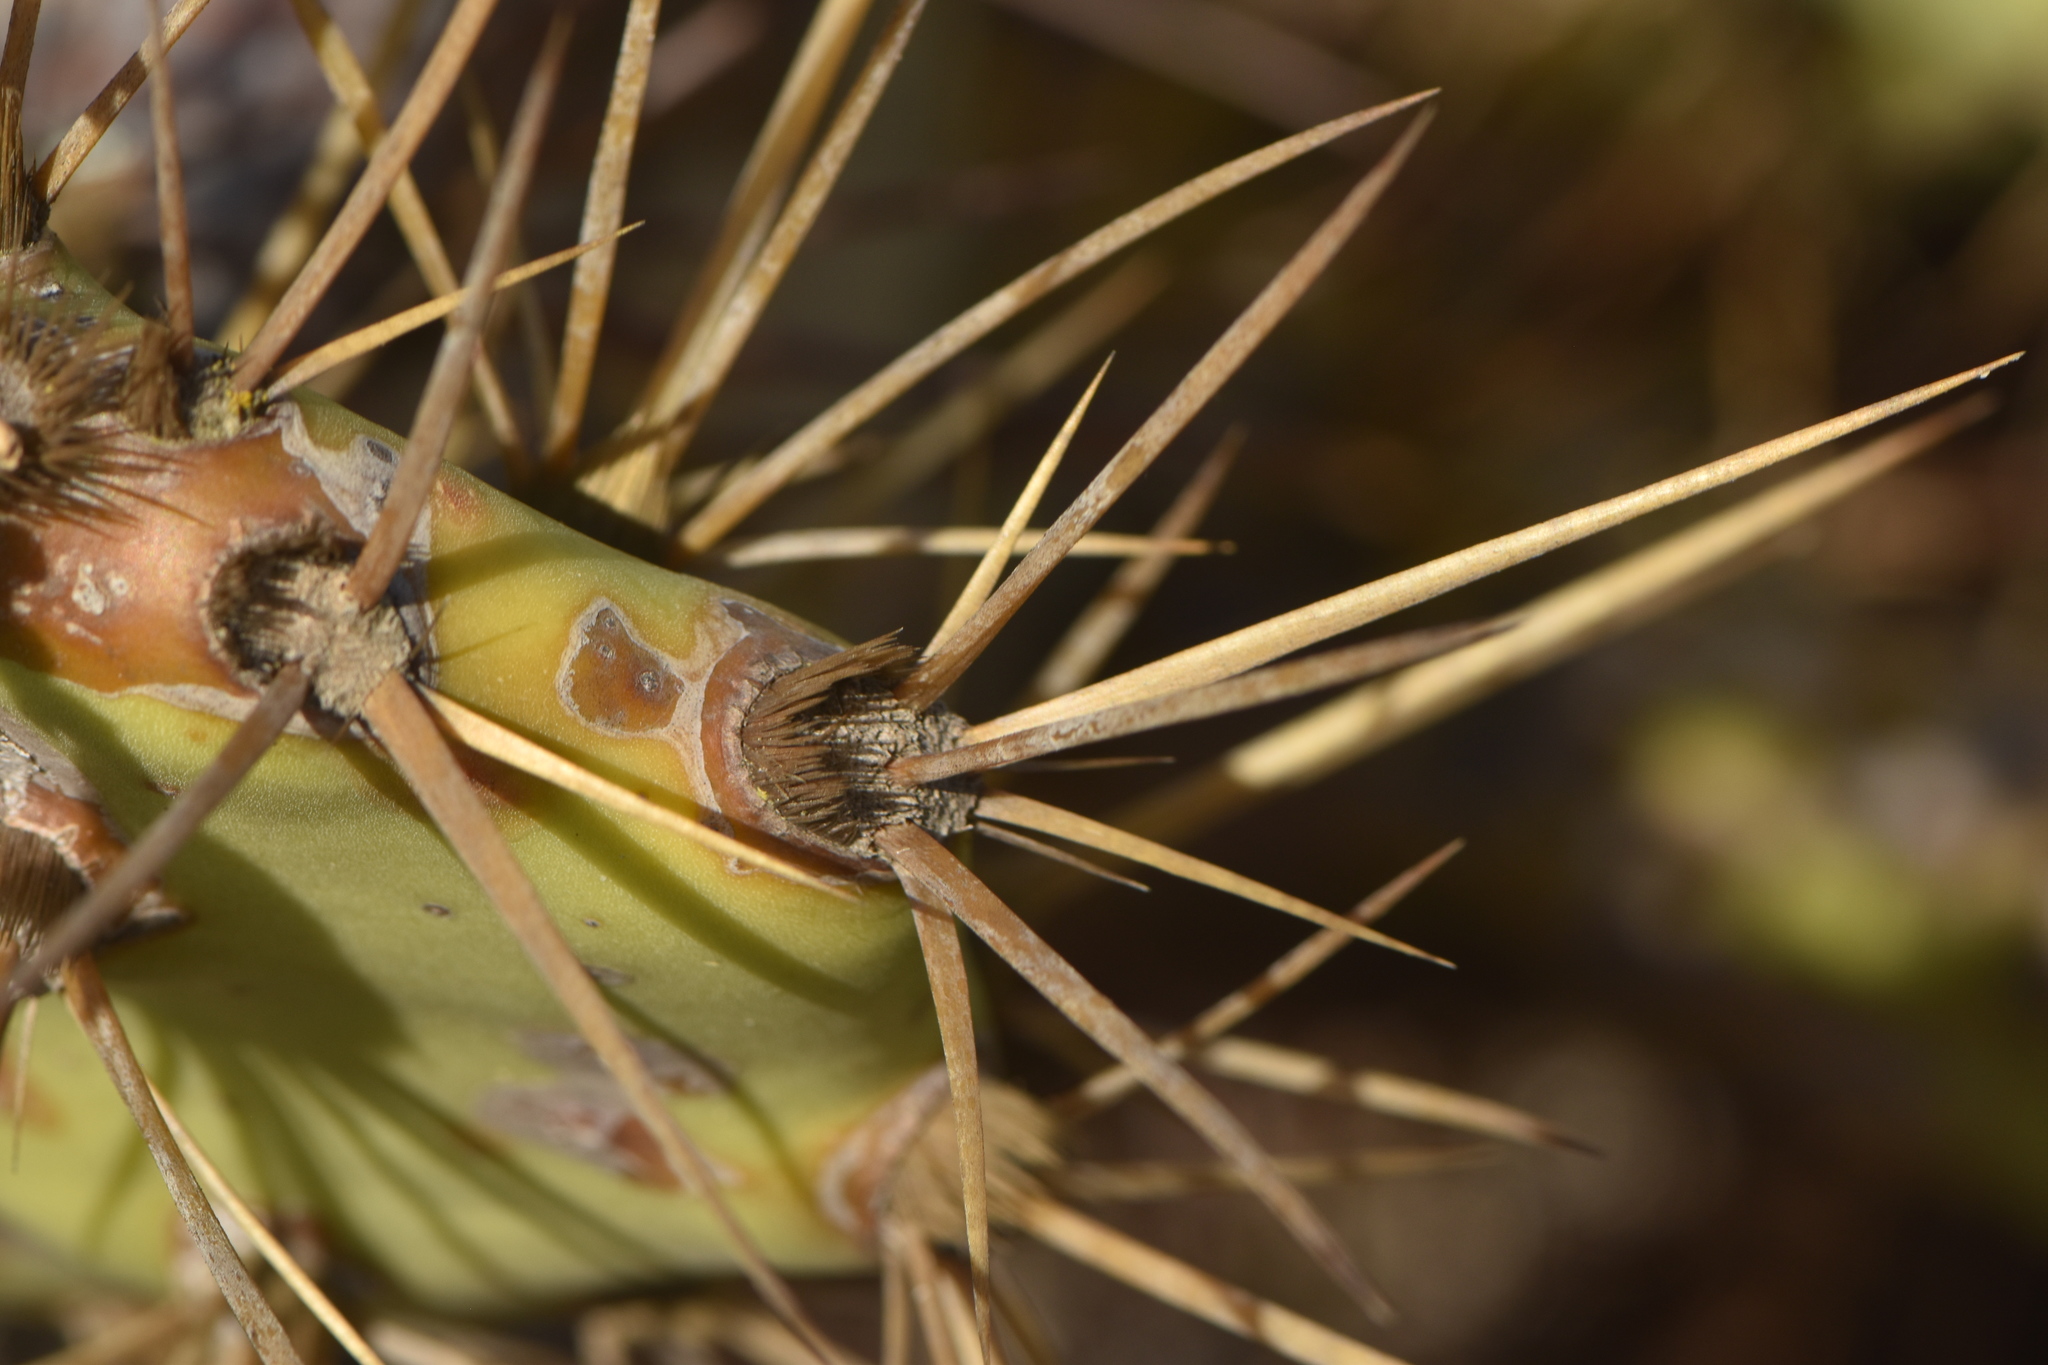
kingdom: Plantae
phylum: Tracheophyta
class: Magnoliopsida
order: Caryophyllales
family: Cactaceae
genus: Opuntia
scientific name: Opuntia stricta
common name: Erect pricklypear
